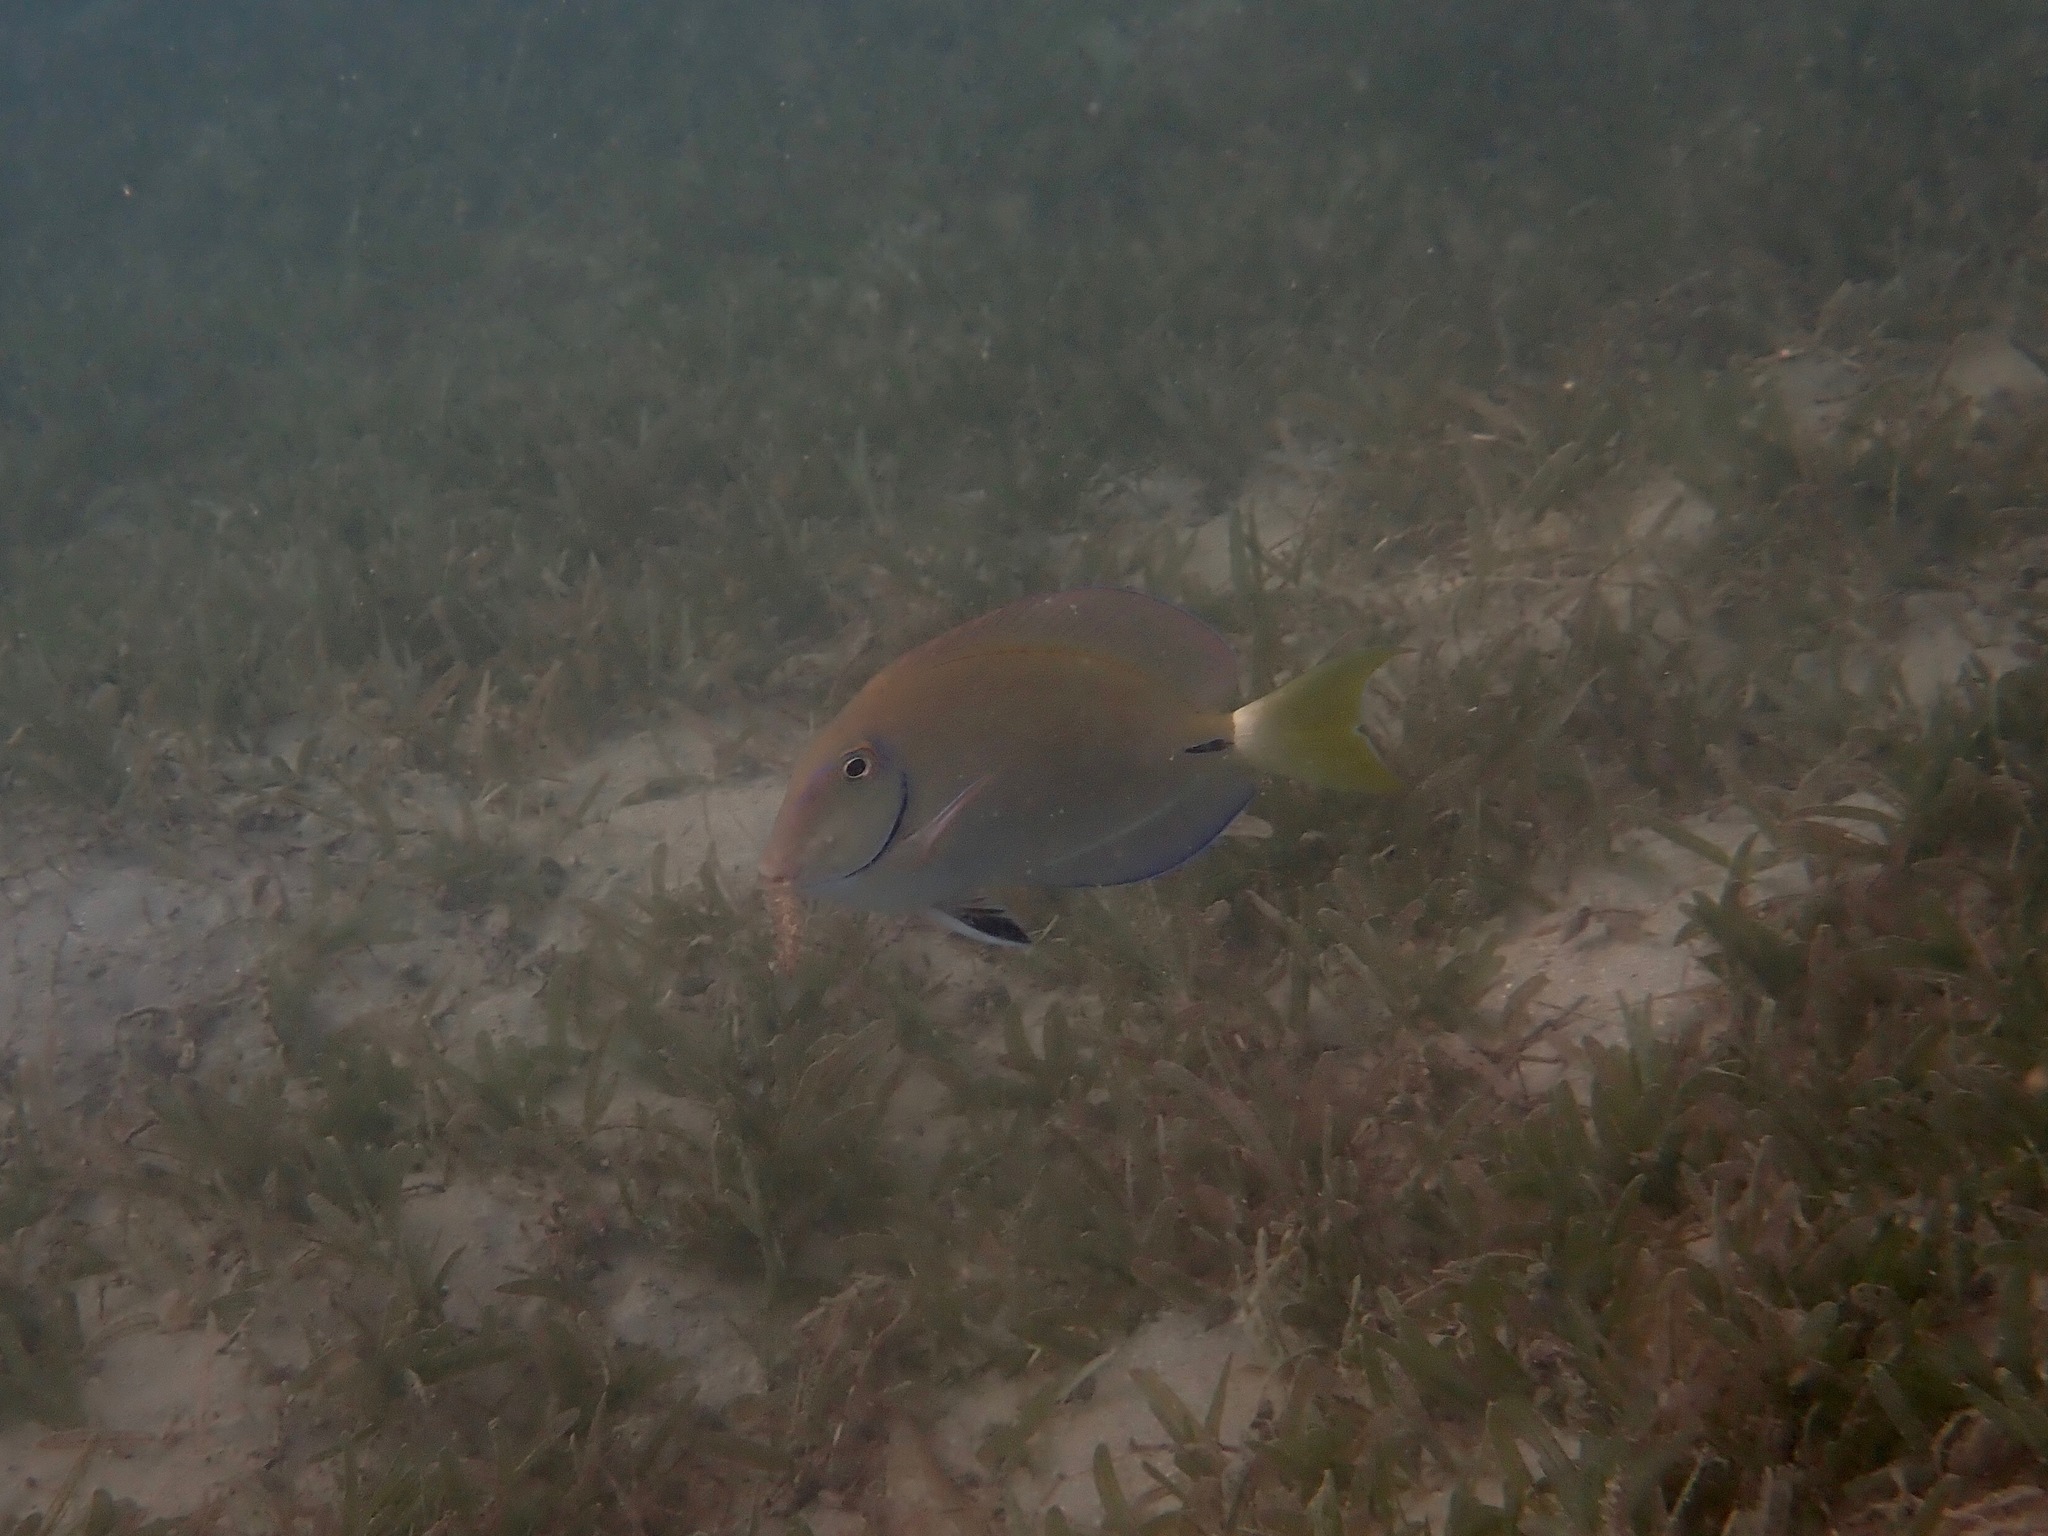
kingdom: Animalia
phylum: Chordata
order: Perciformes
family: Acanthuridae
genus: Acanthurus
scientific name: Acanthurus bahianus
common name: Ocean surgeon
